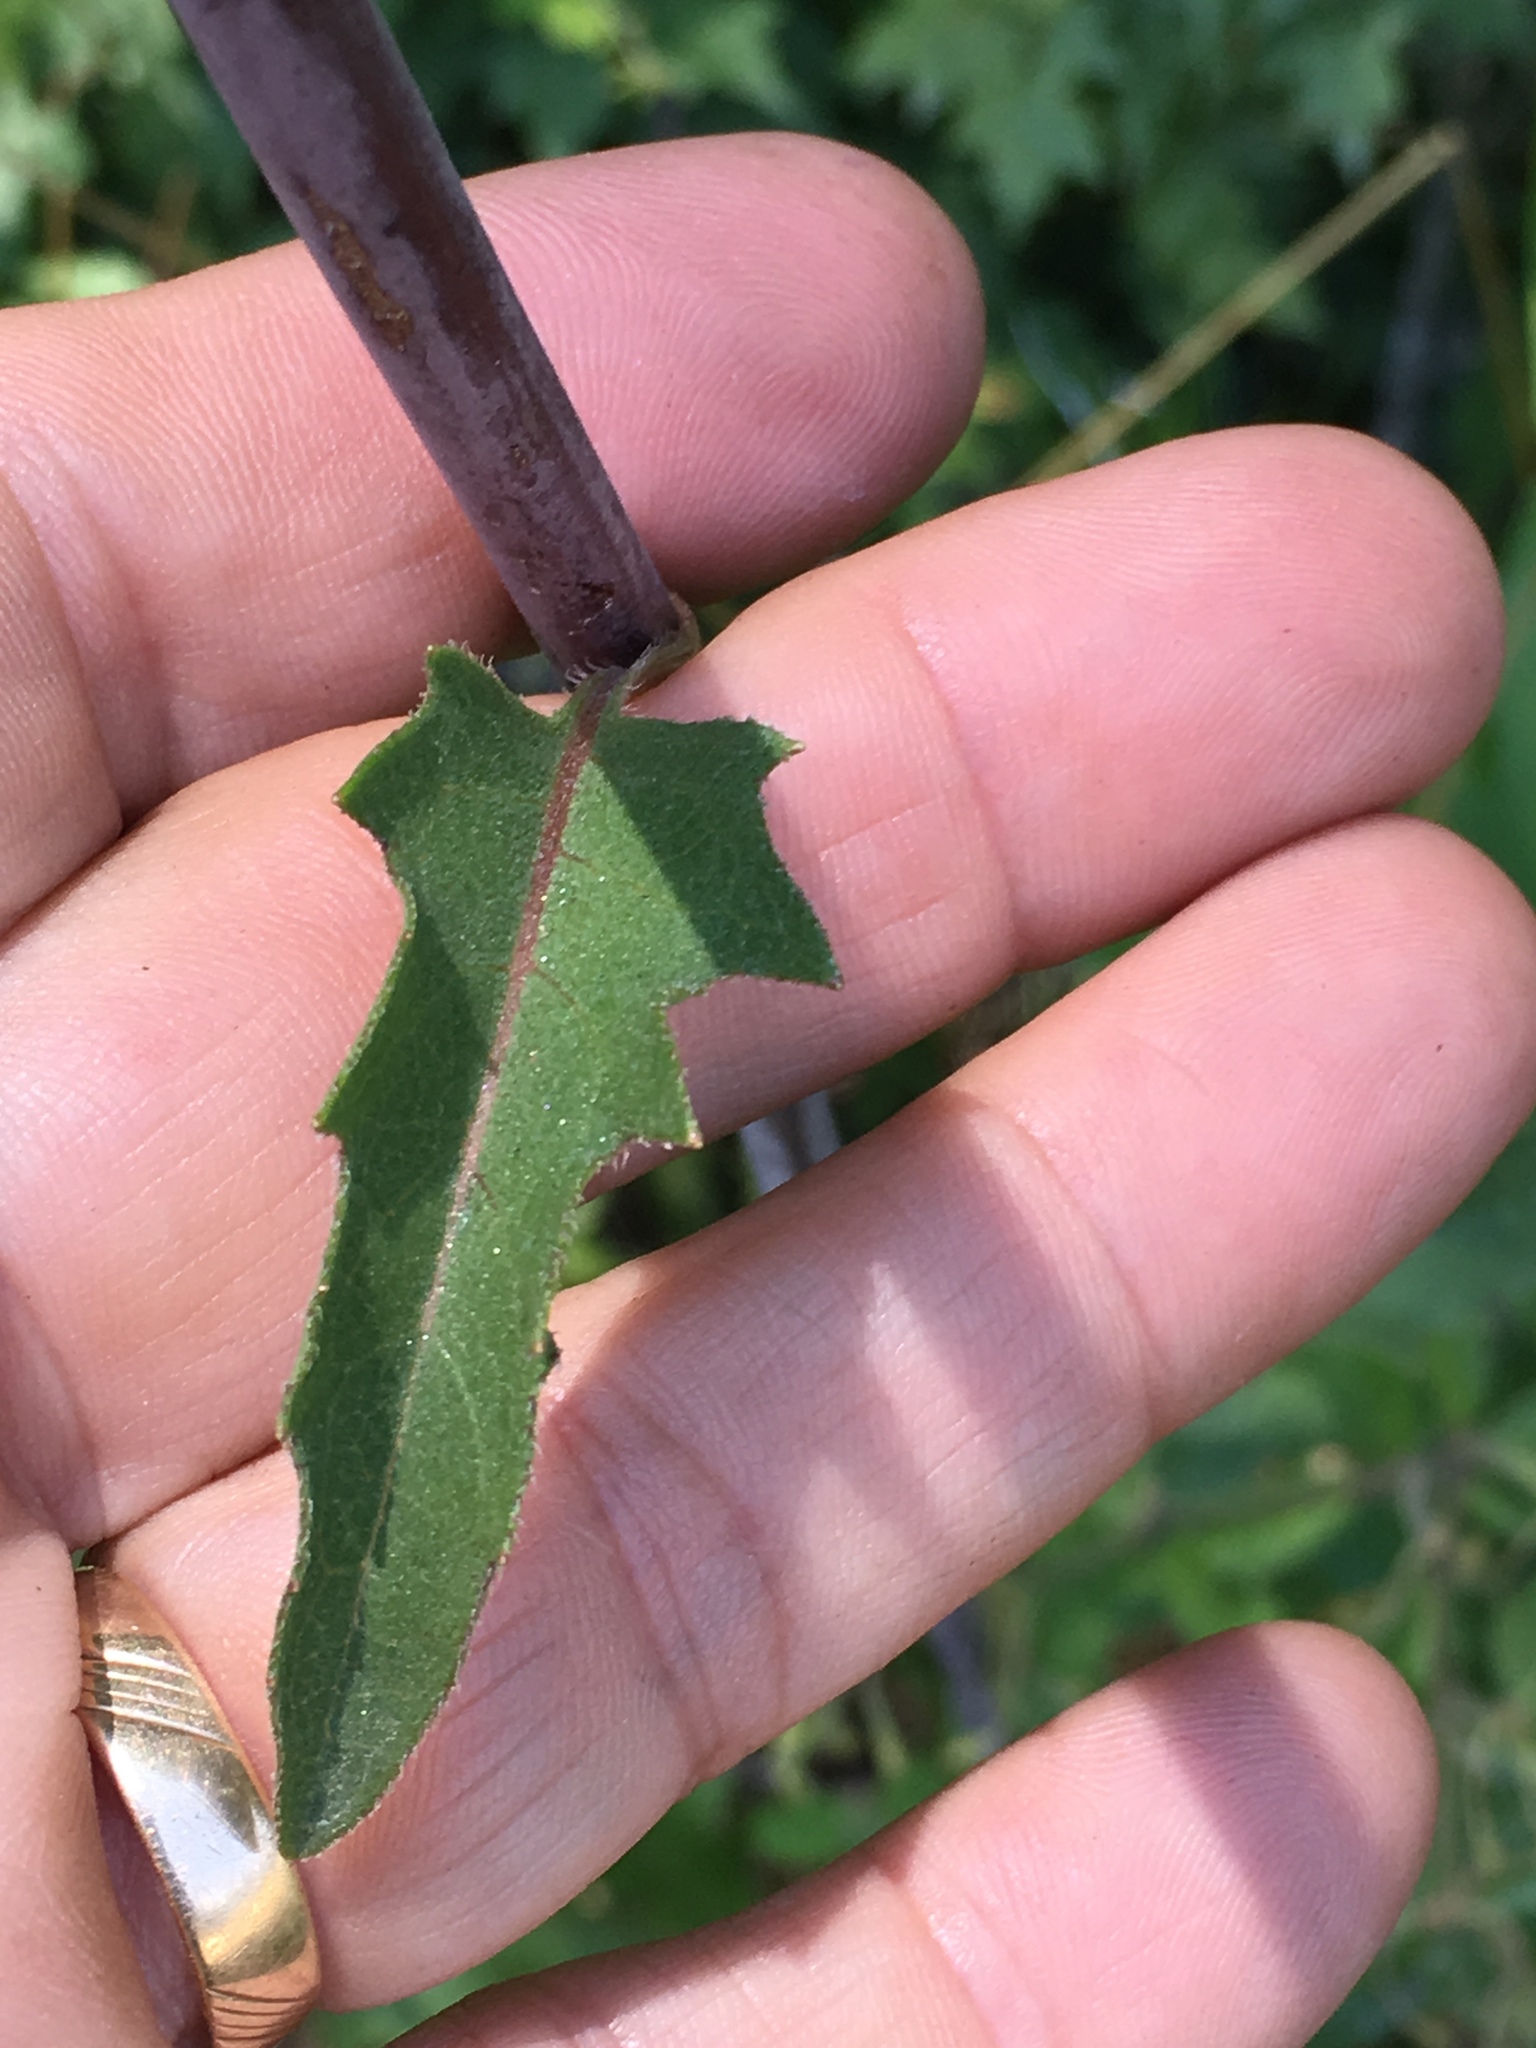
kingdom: Plantae
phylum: Tracheophyta
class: Magnoliopsida
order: Asterales
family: Asteraceae
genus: Silphium
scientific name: Silphium compositum
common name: Lesser basal-leaf rosinweed
